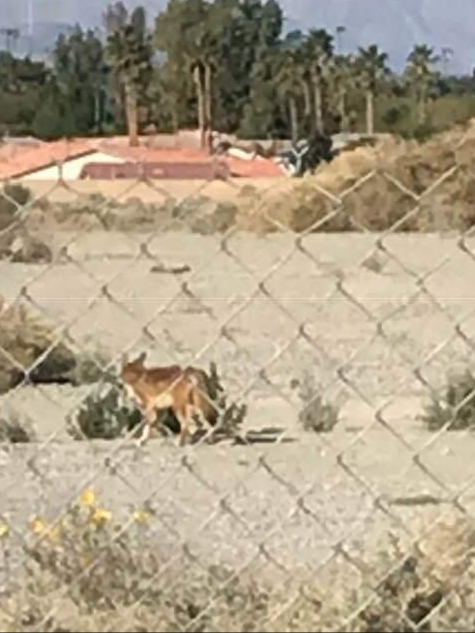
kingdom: Animalia
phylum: Chordata
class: Mammalia
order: Carnivora
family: Canidae
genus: Canis
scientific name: Canis latrans
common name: Coyote
